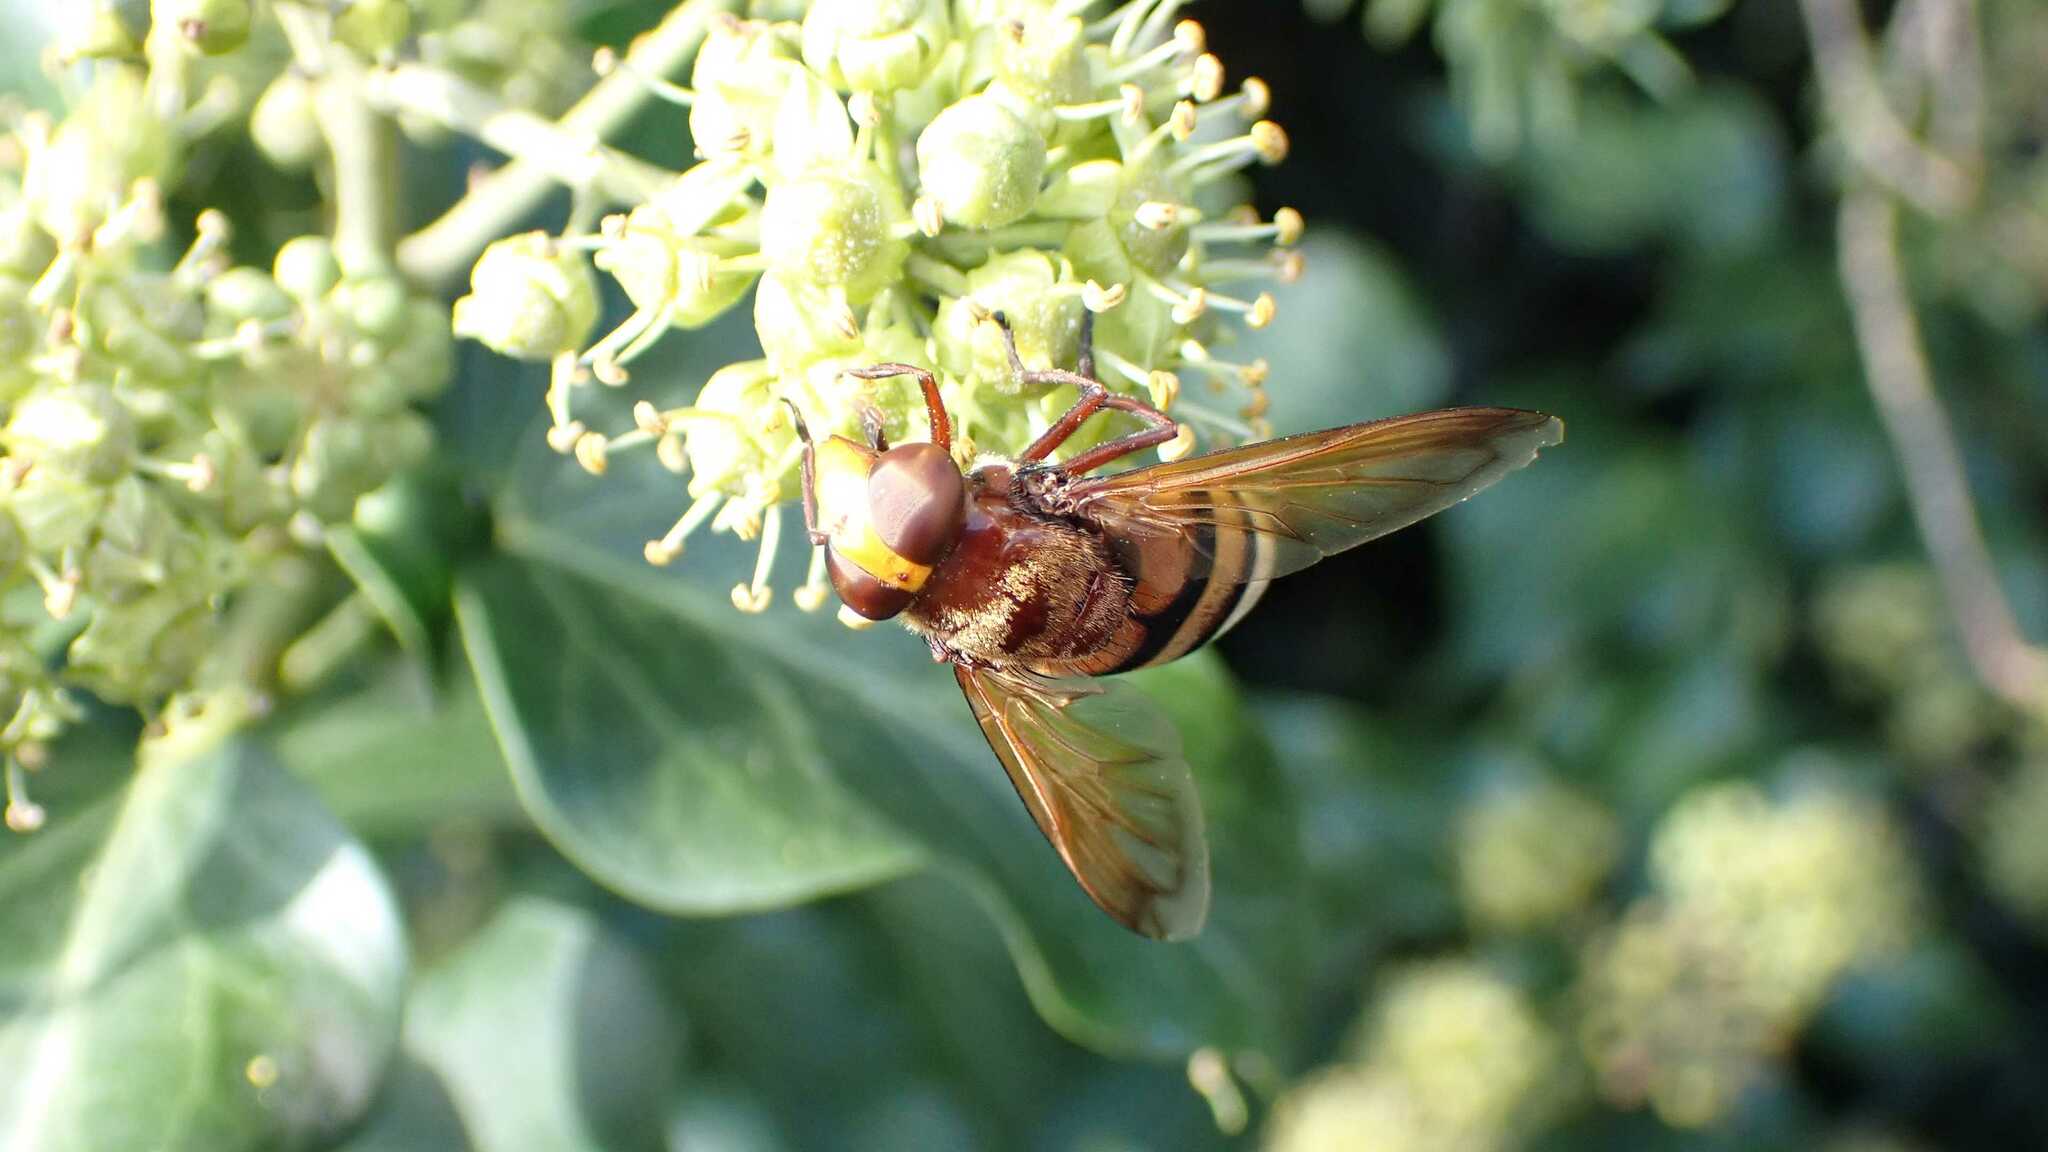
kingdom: Animalia
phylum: Arthropoda
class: Insecta
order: Diptera
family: Syrphidae
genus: Volucella
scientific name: Volucella zonaria
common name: Hornet hoverfly
